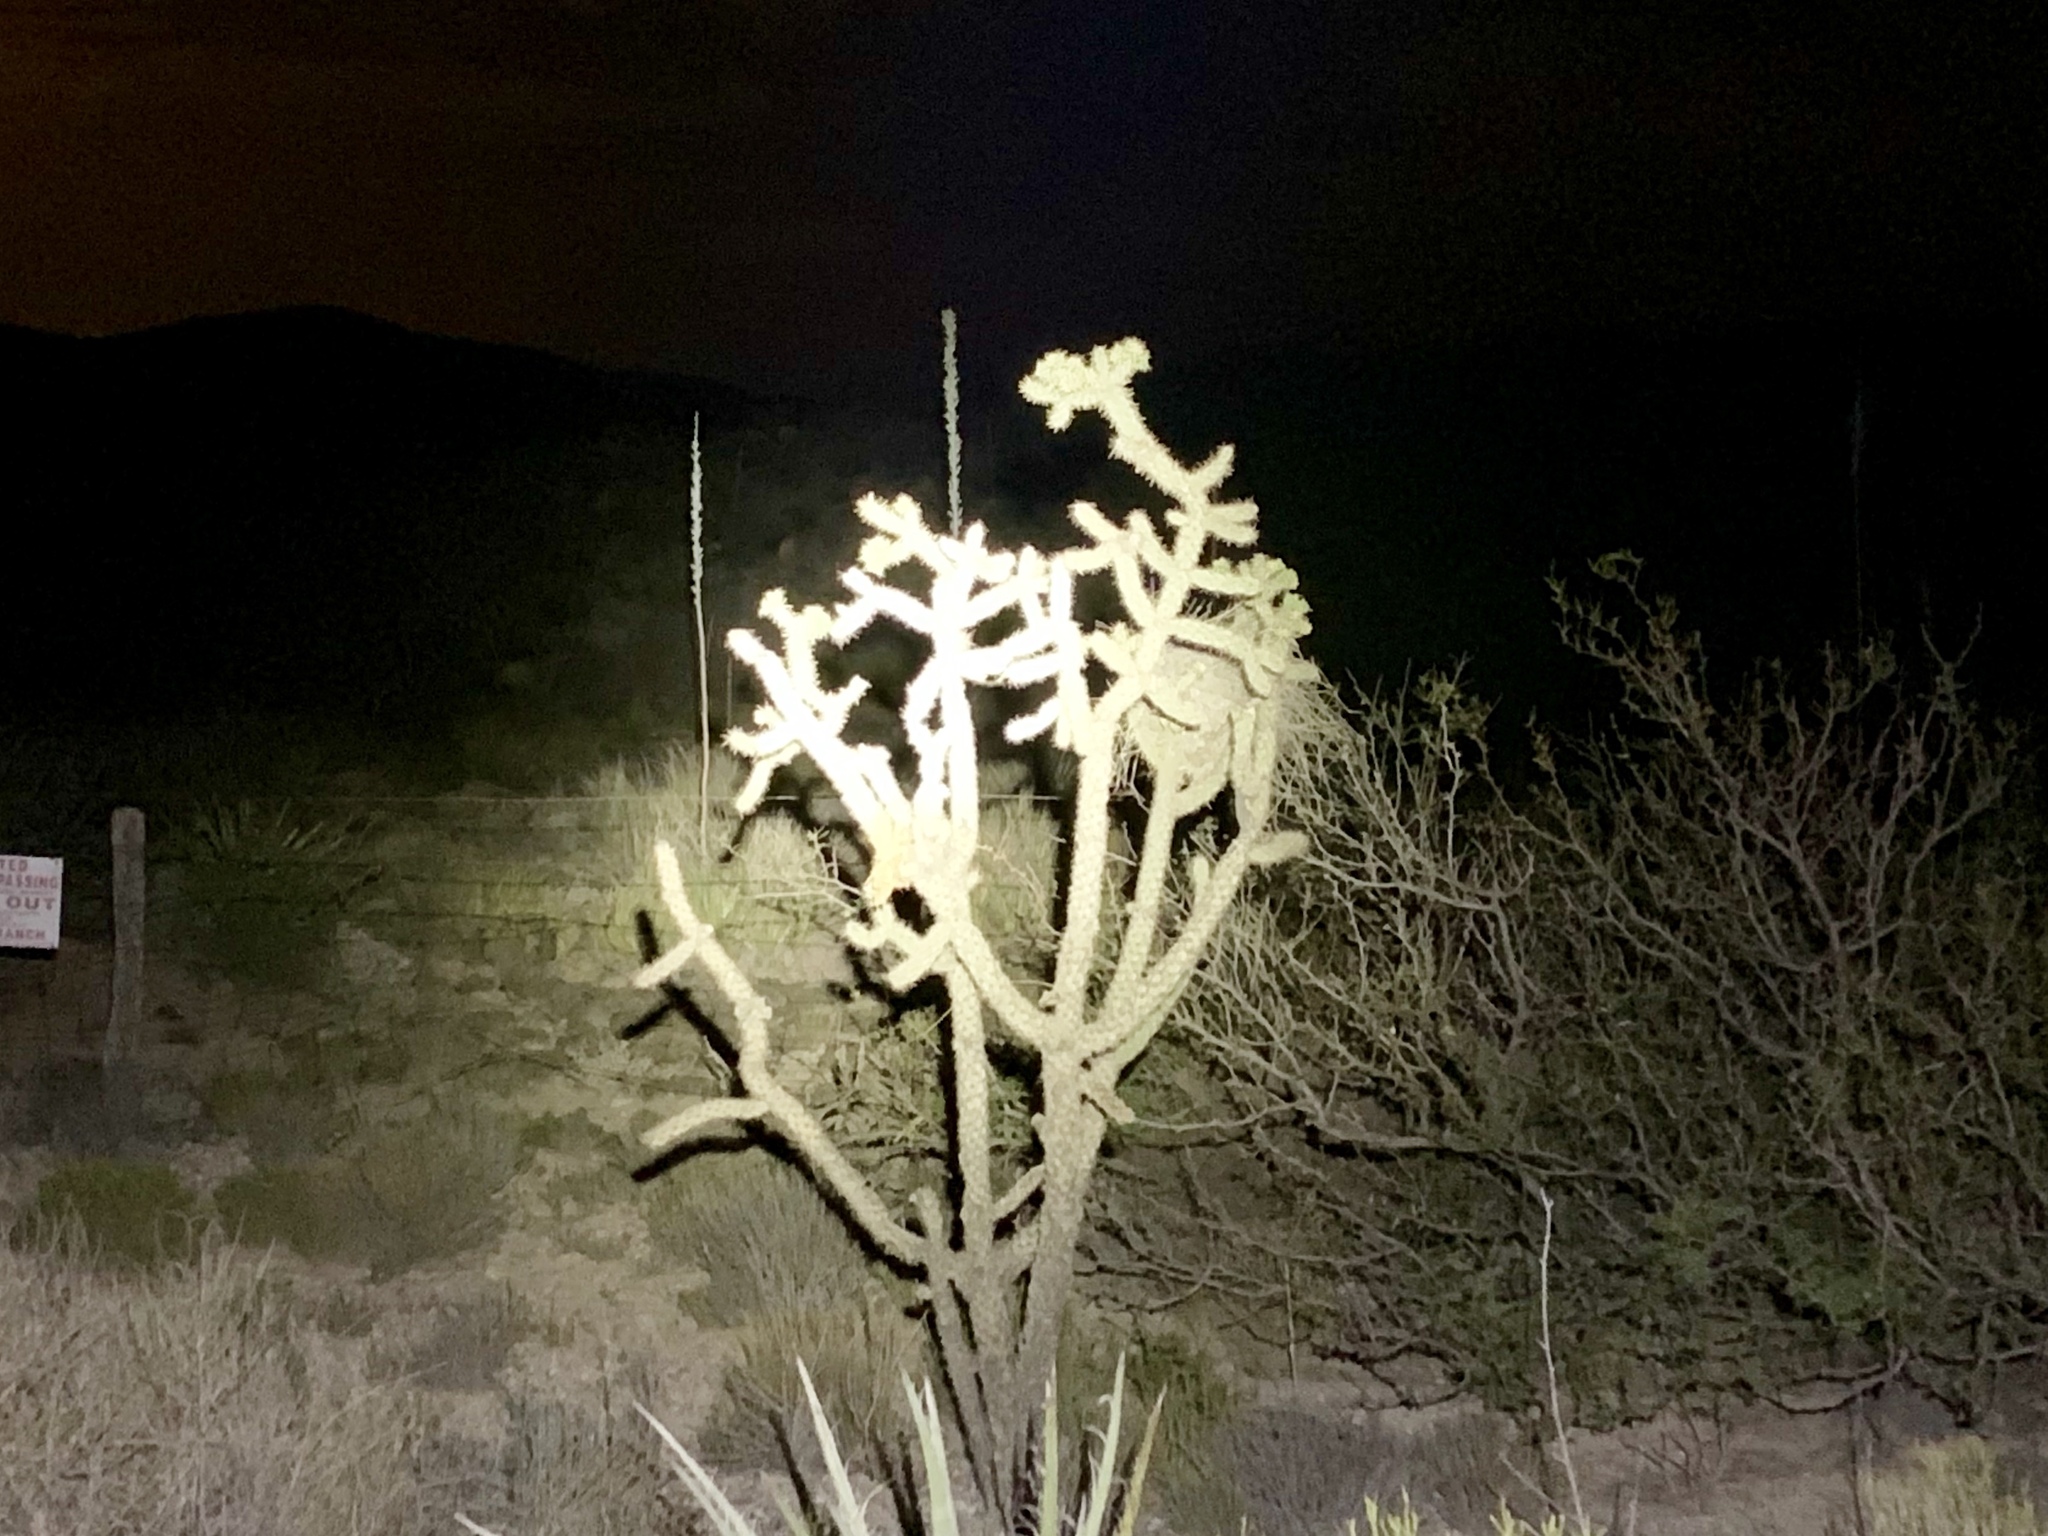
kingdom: Plantae
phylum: Tracheophyta
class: Magnoliopsida
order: Caryophyllales
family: Cactaceae
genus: Cylindropuntia
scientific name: Cylindropuntia imbricata
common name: Candelabrum cactus
